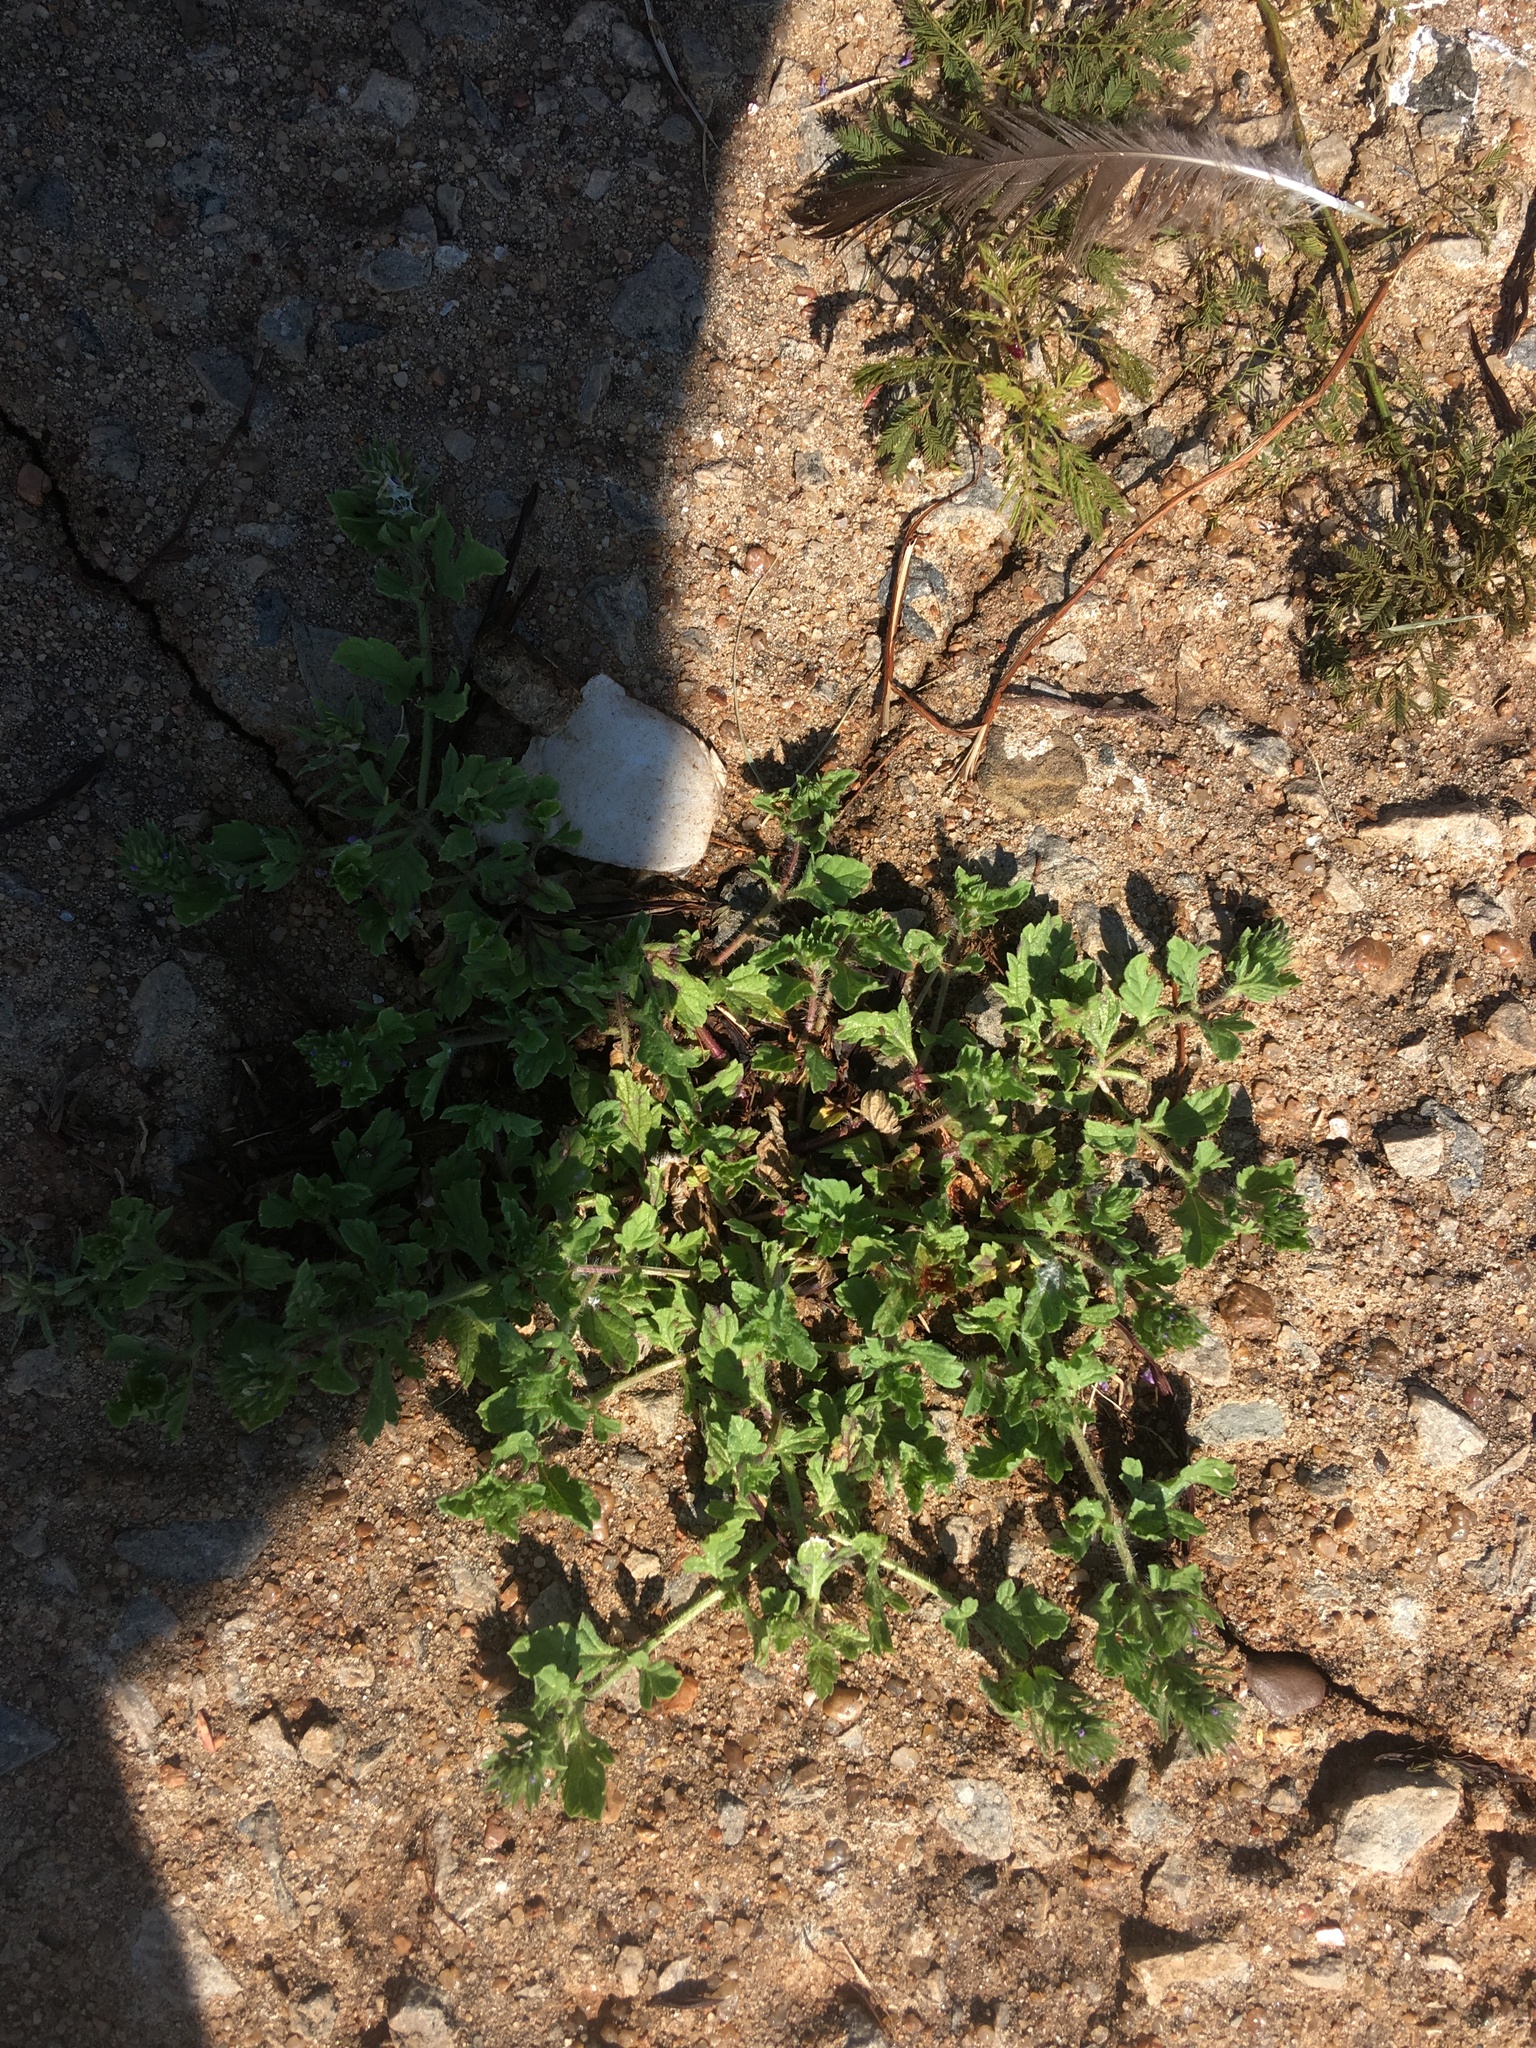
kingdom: Plantae
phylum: Tracheophyta
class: Magnoliopsida
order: Lamiales
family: Verbenaceae
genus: Verbena
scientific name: Verbena bracteata
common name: Bracted vervain
